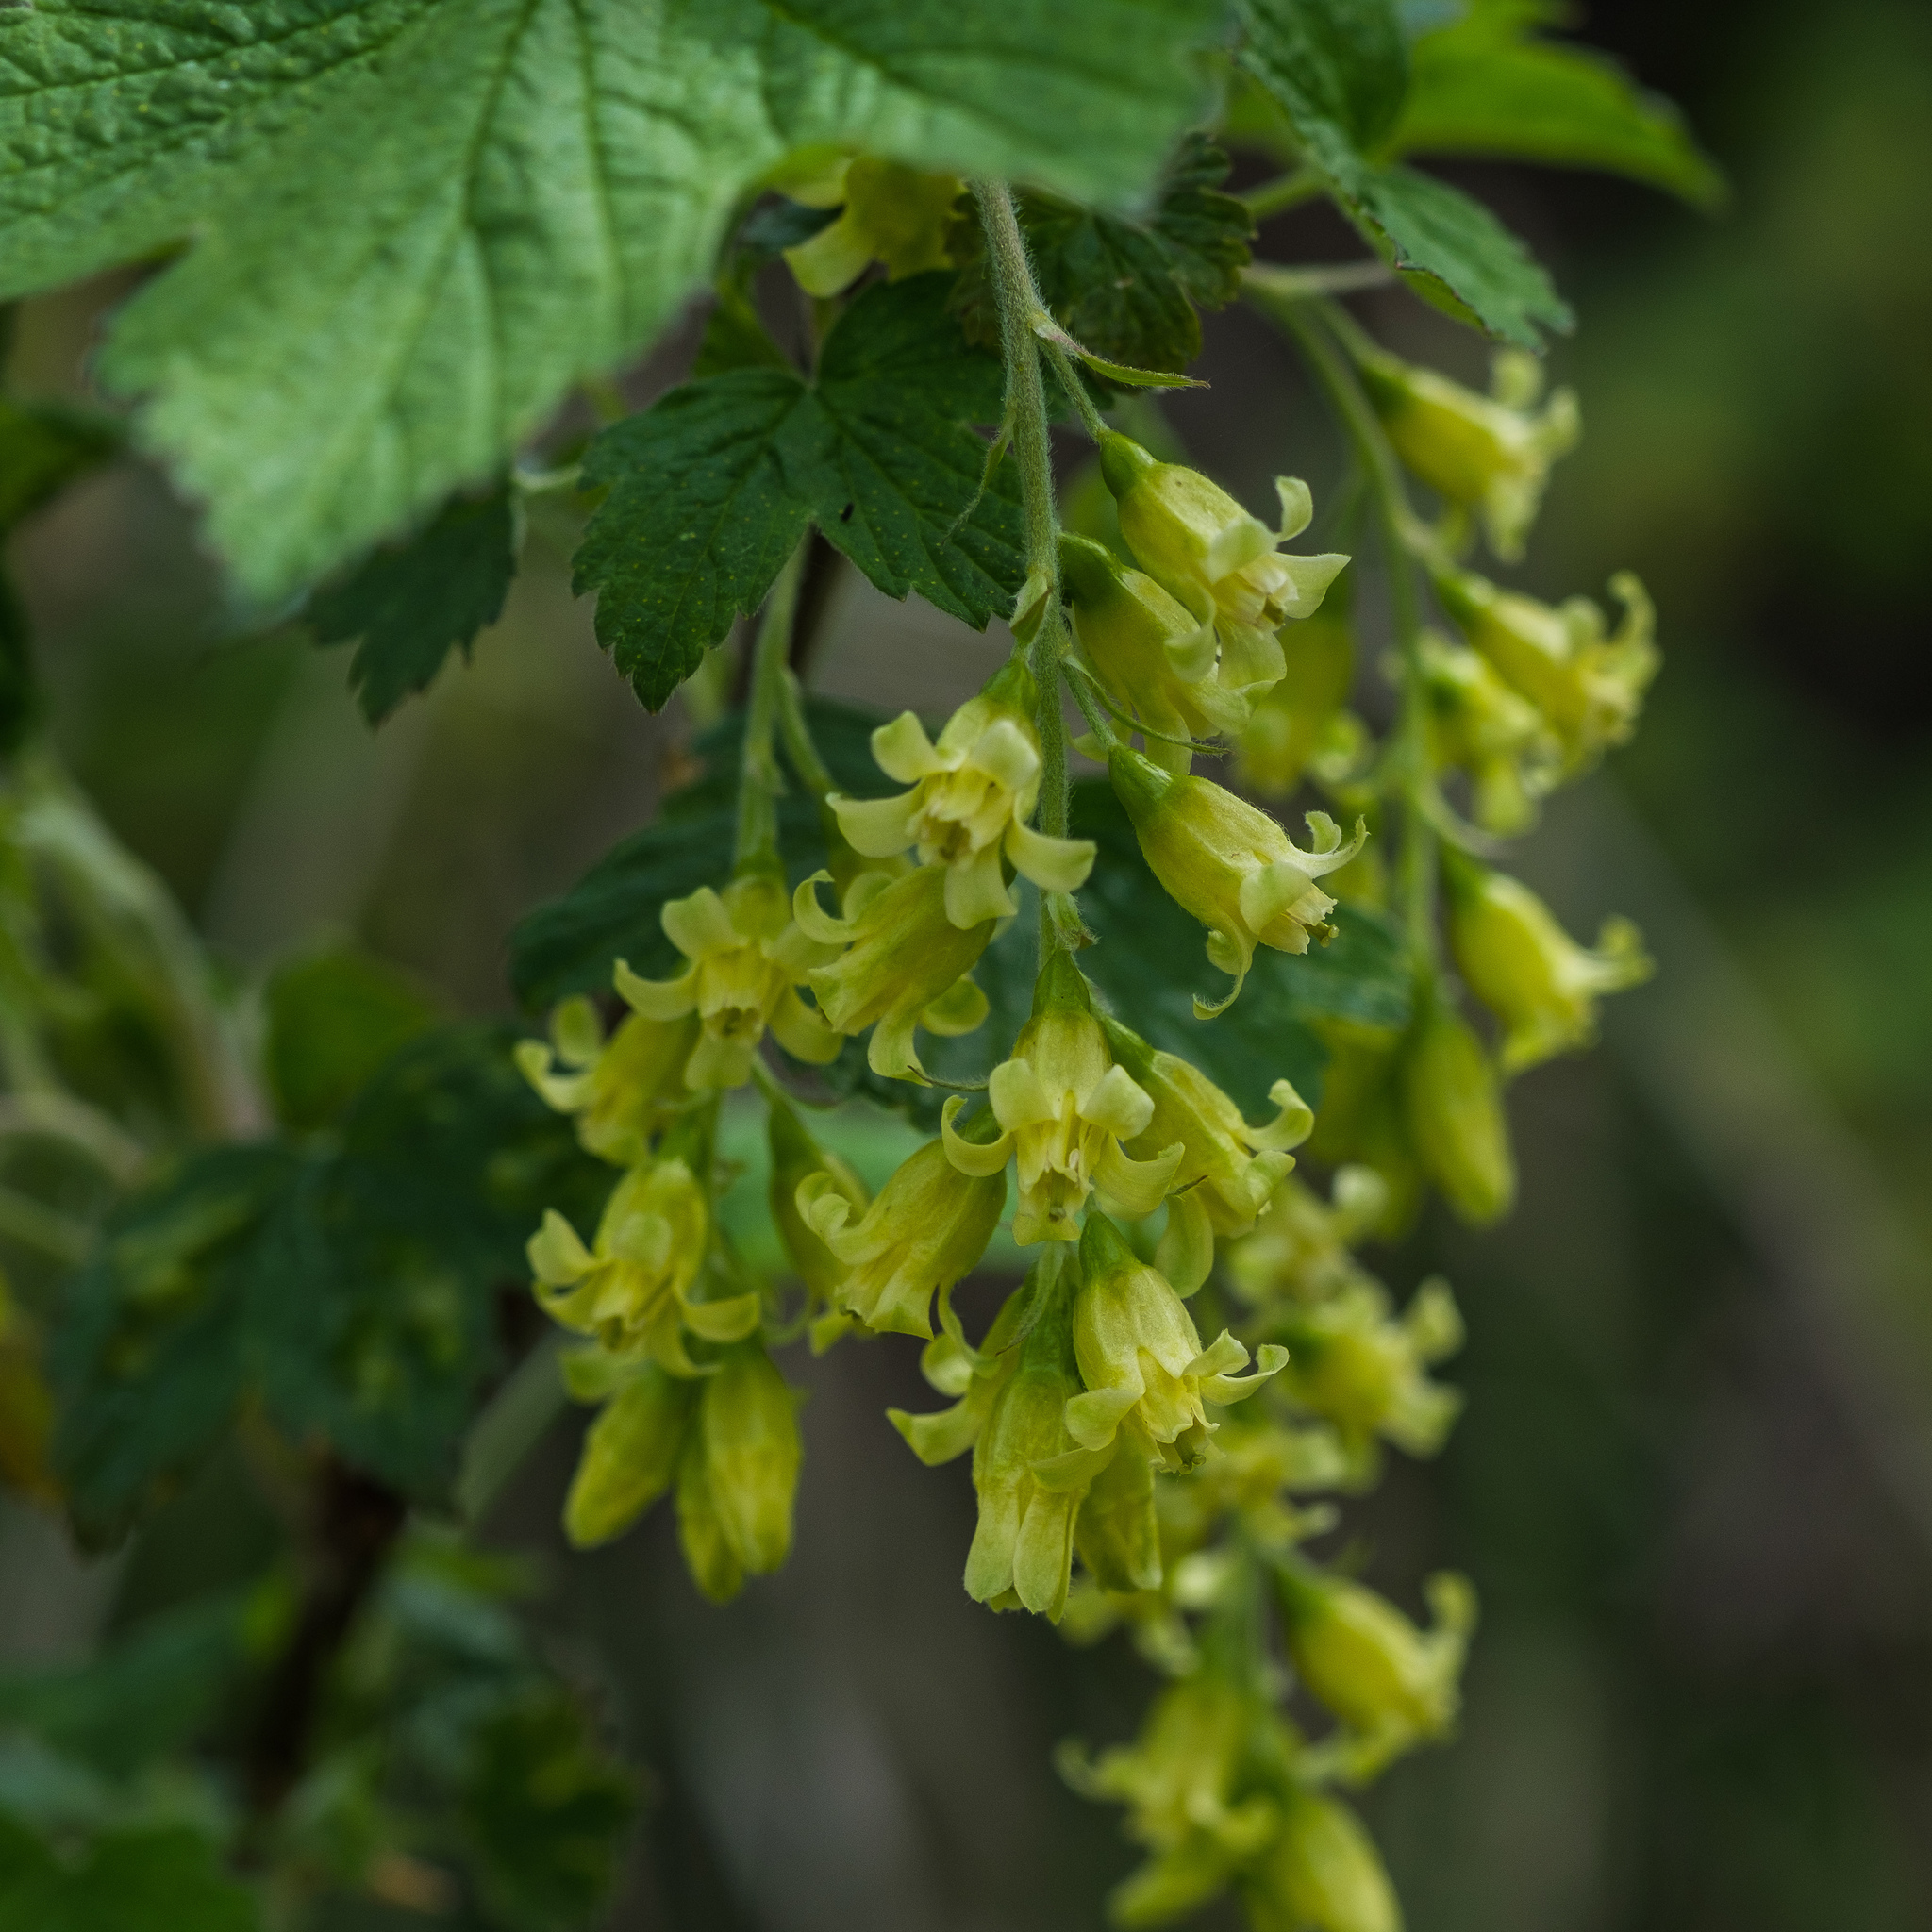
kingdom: Plantae
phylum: Tracheophyta
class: Magnoliopsida
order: Saxifragales
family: Grossulariaceae
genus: Ribes
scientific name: Ribes americanum
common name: American black currant
